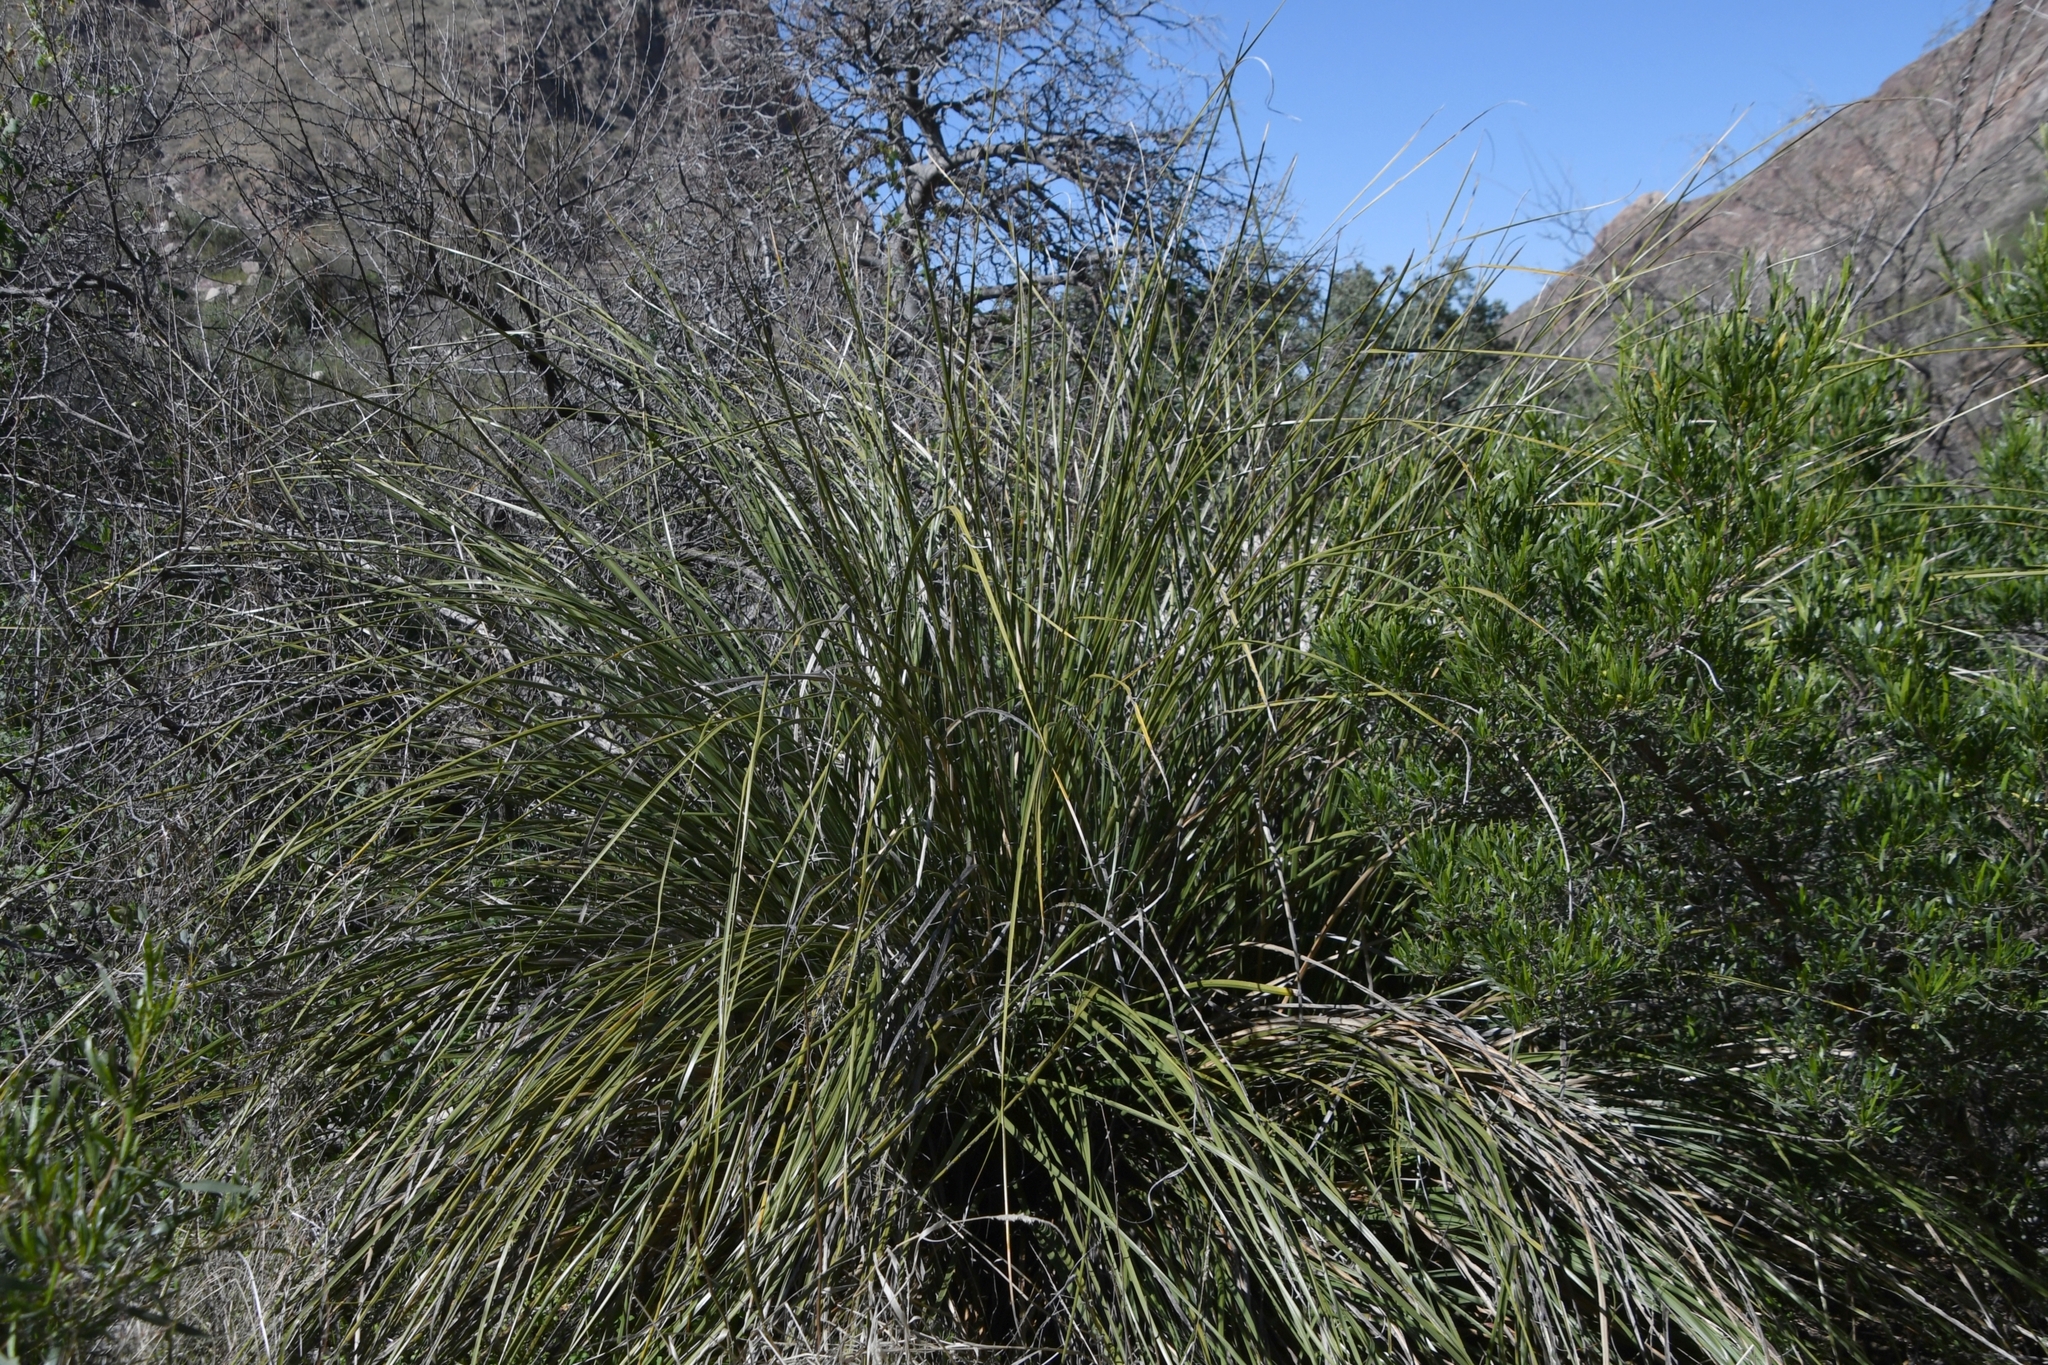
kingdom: Plantae
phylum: Tracheophyta
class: Liliopsida
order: Asparagales
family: Asparagaceae
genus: Nolina
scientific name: Nolina microcarpa
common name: Bear-grass
